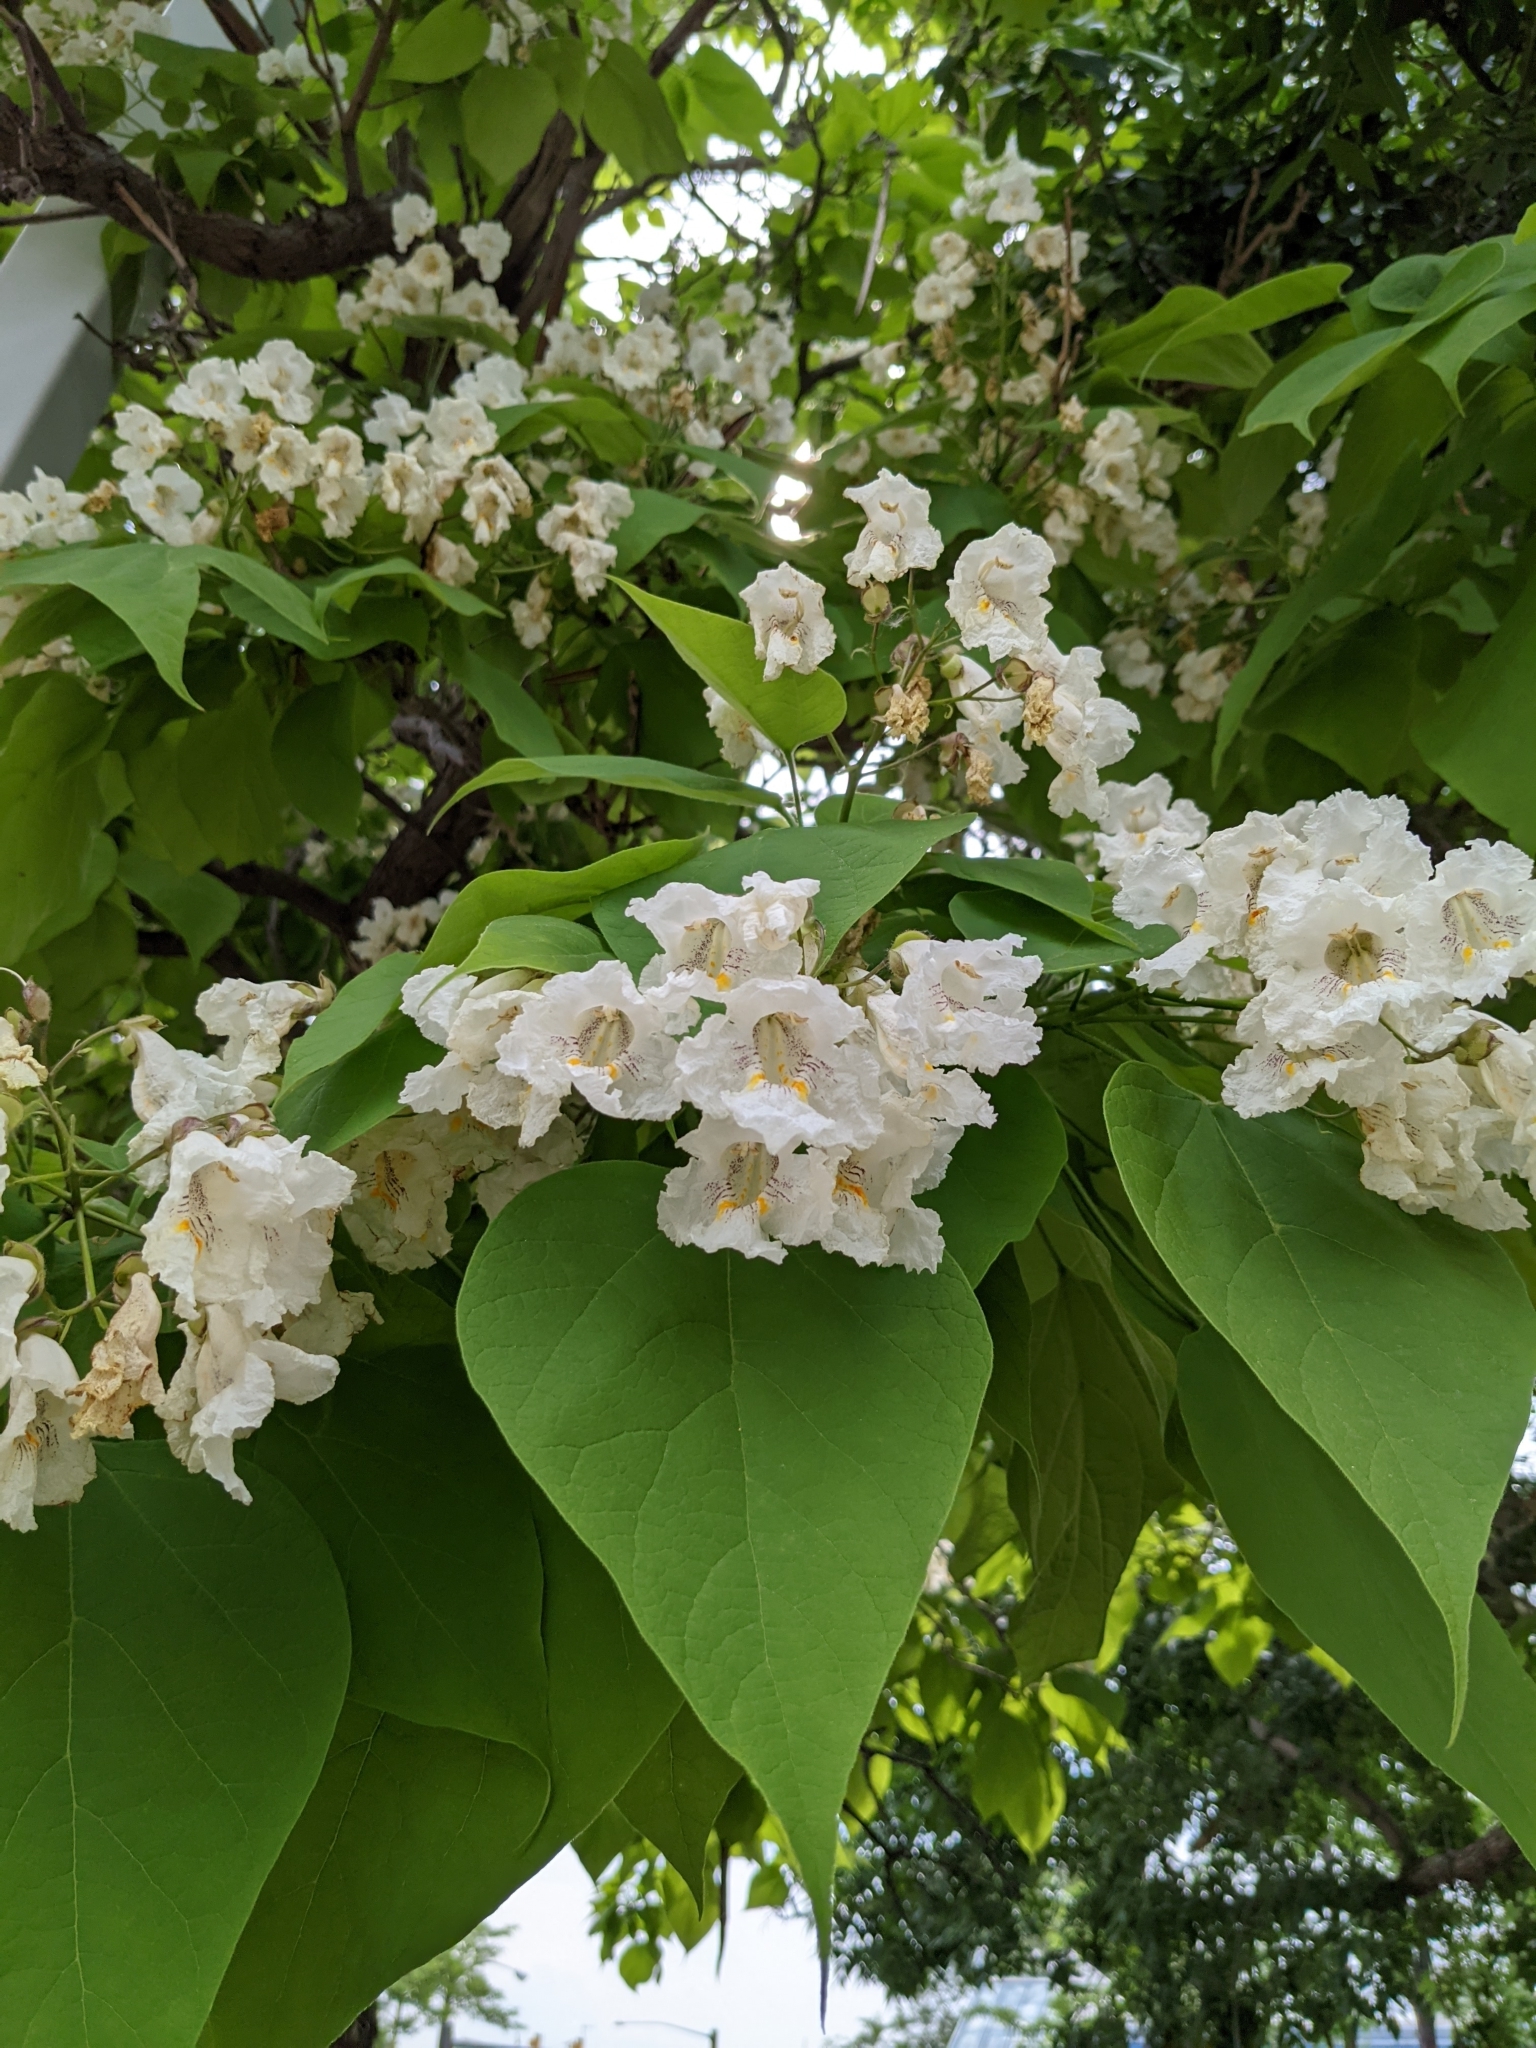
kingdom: Plantae
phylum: Tracheophyta
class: Magnoliopsida
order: Lamiales
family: Bignoniaceae
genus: Catalpa
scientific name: Catalpa speciosa
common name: Northern catalpa
